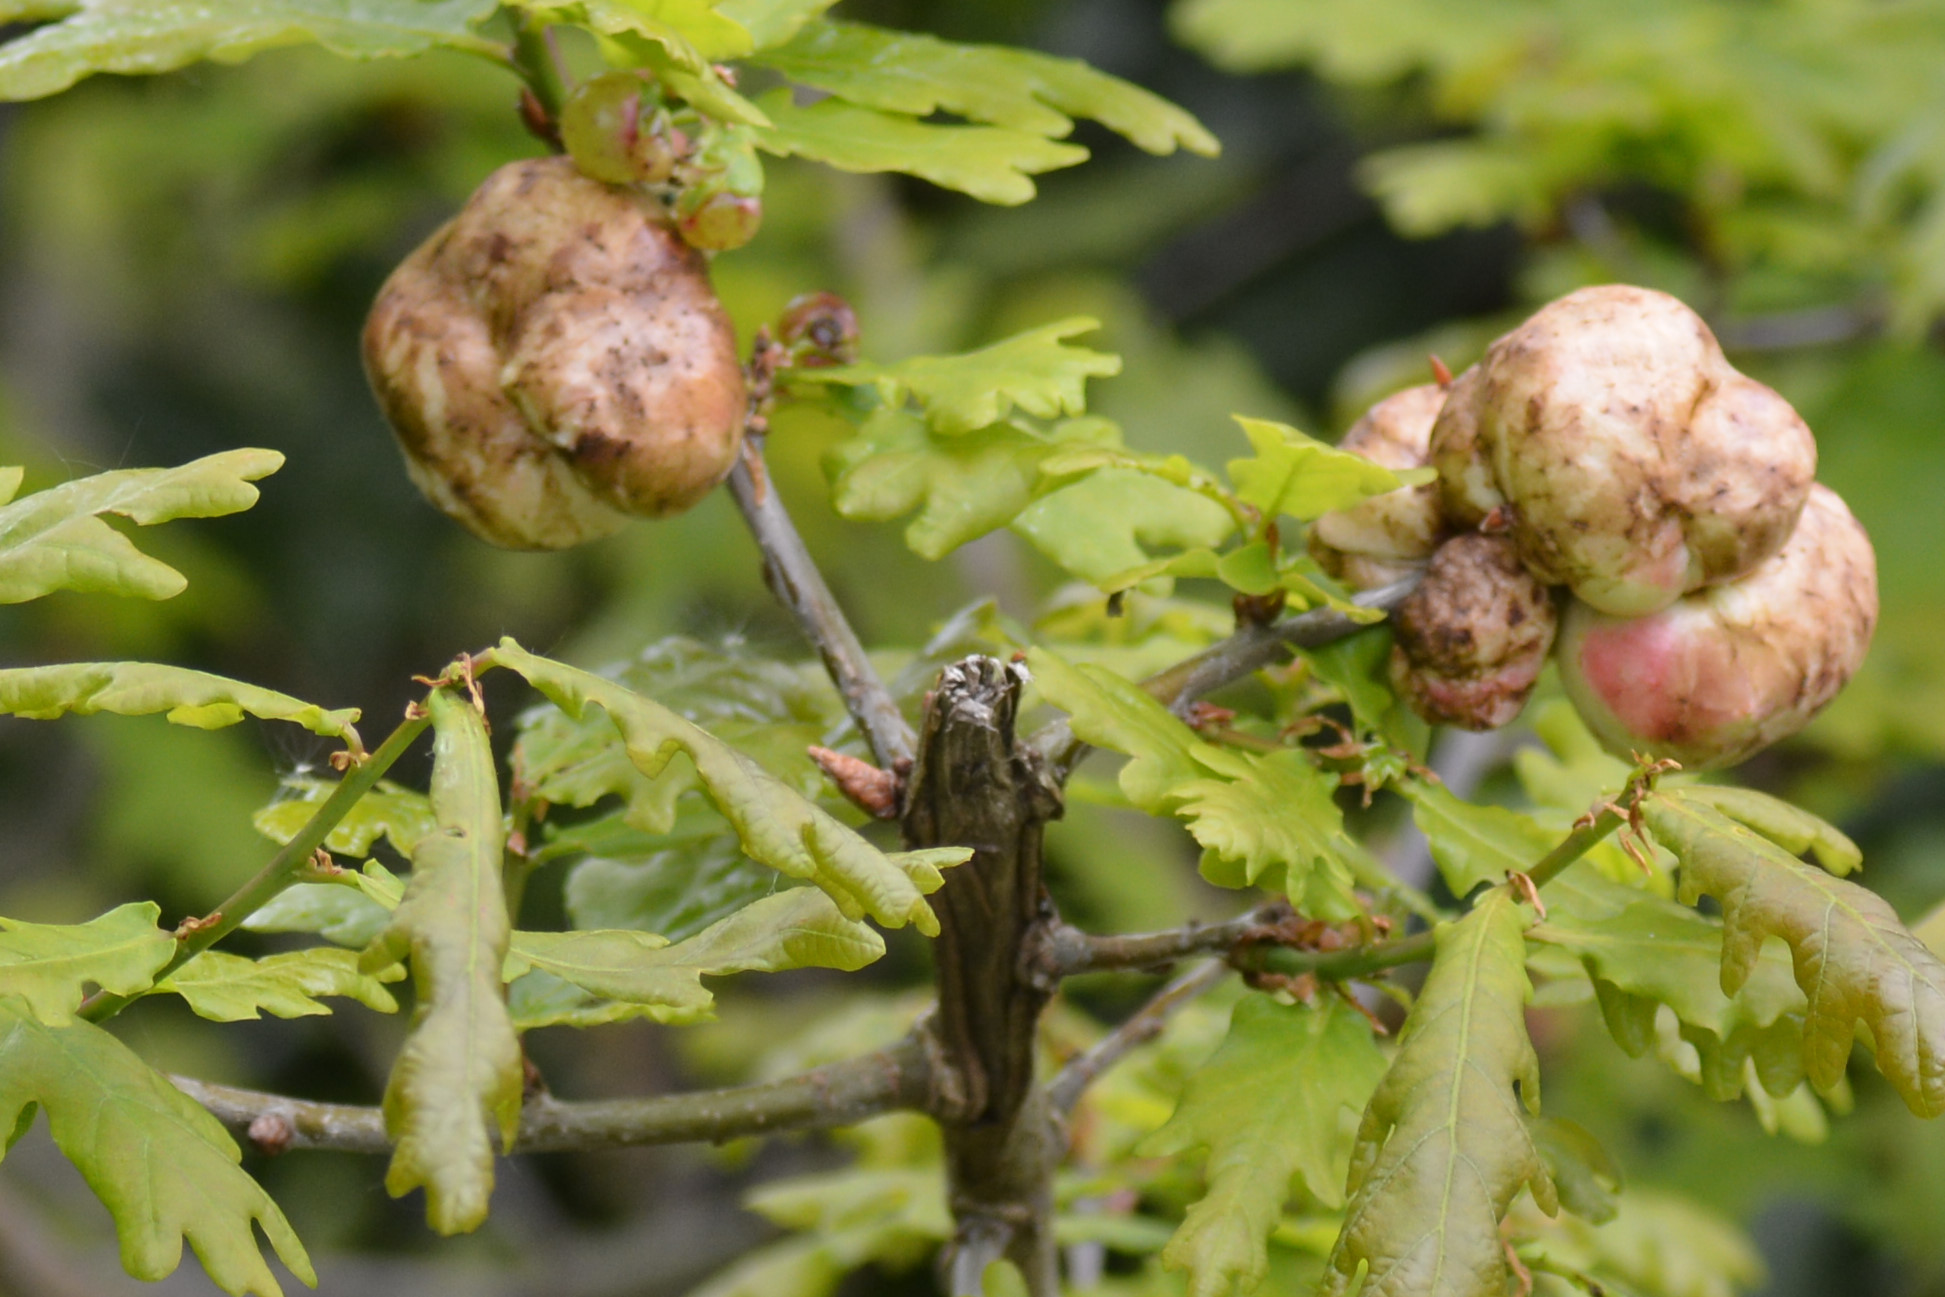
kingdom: Animalia
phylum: Arthropoda
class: Insecta
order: Hymenoptera
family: Cynipidae
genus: Biorhiza
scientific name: Biorhiza pallida
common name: Oak apple
